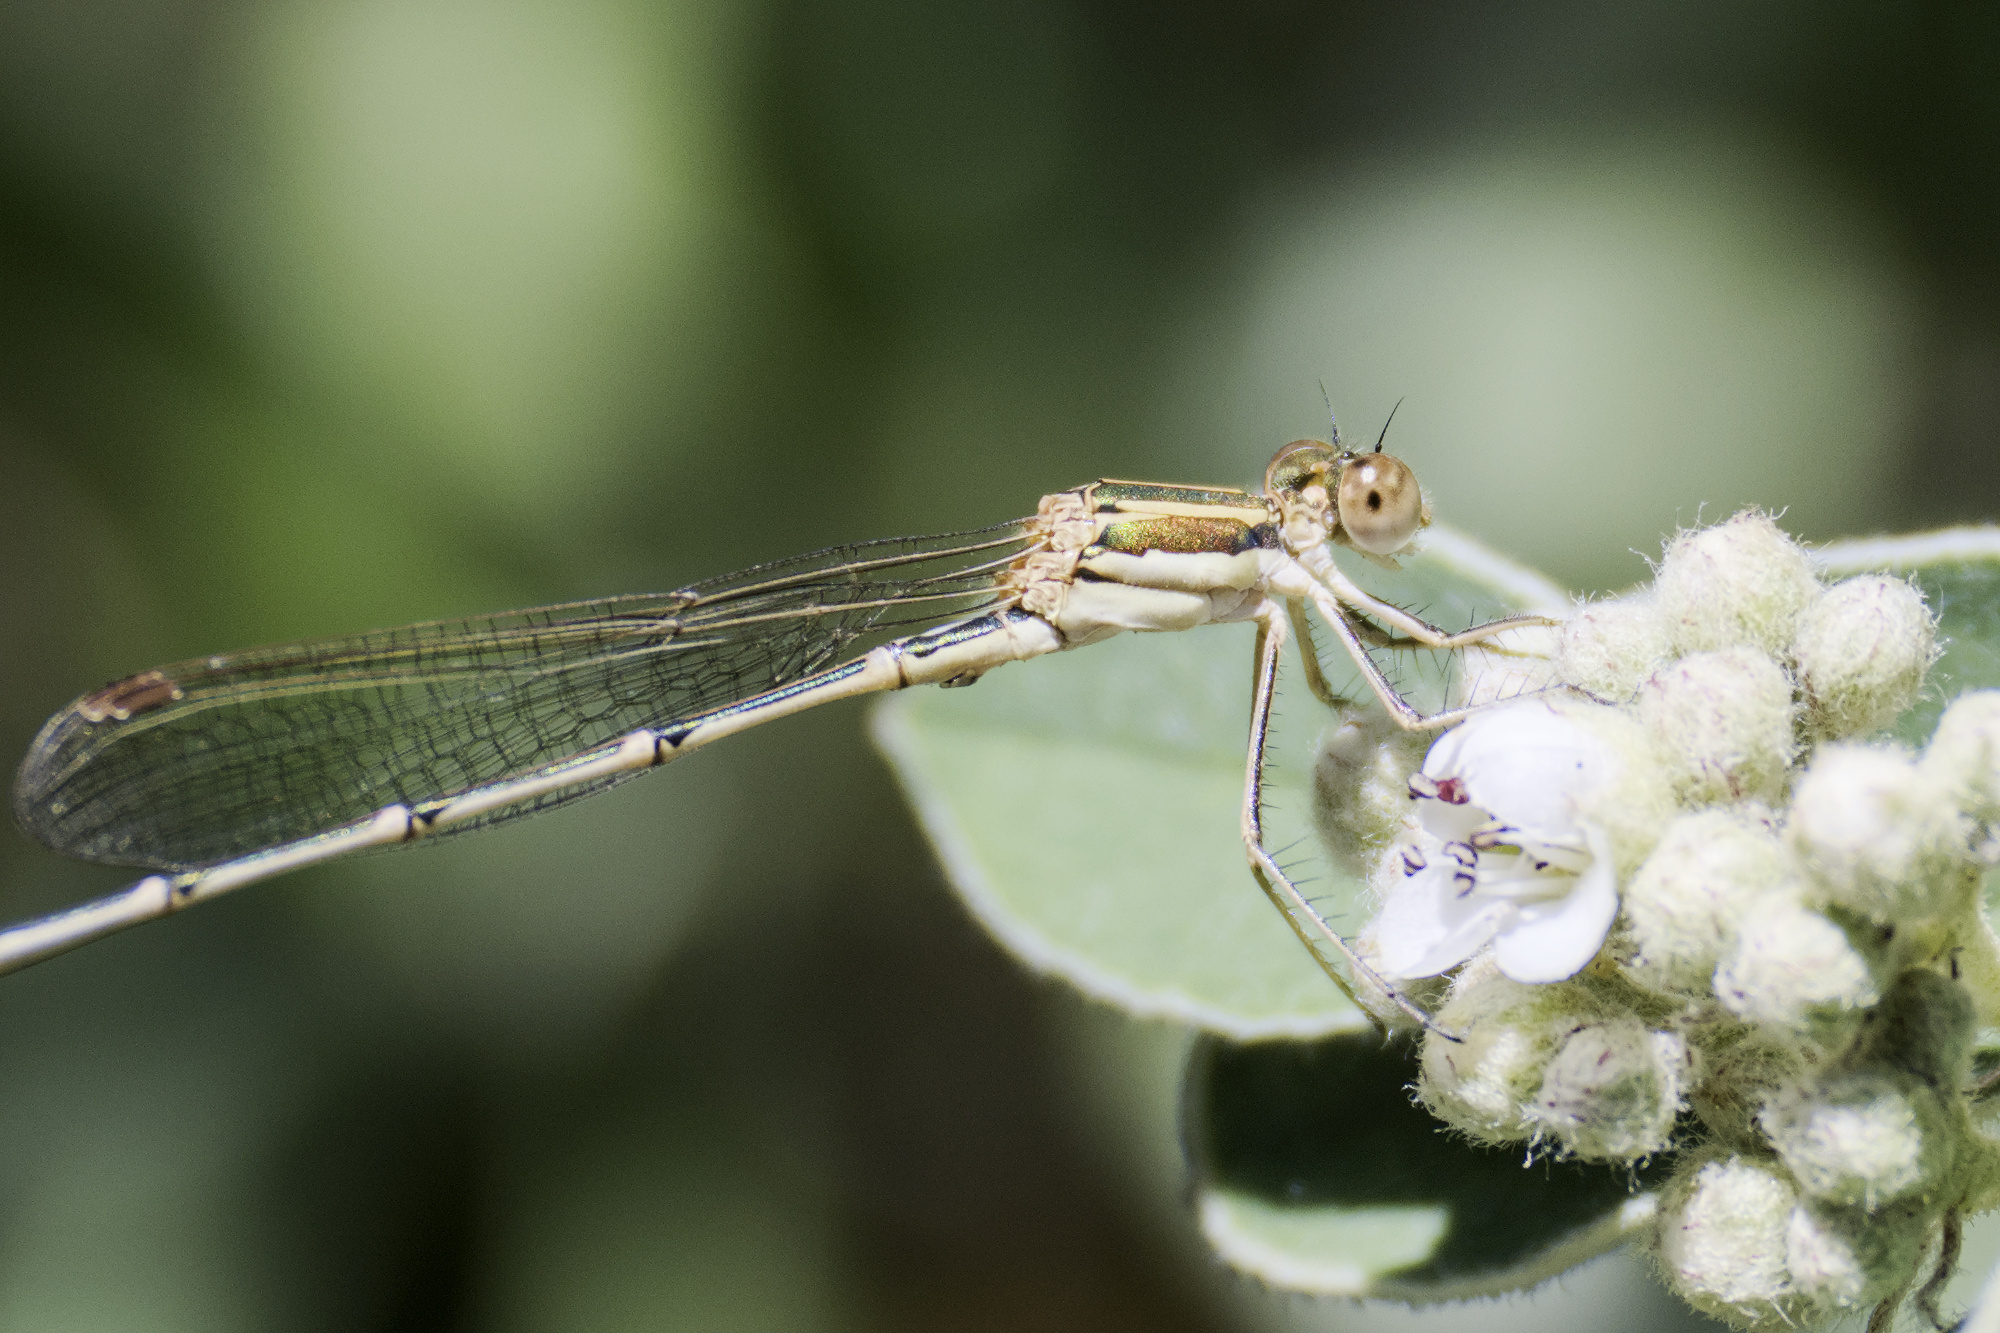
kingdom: Animalia
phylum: Arthropoda
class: Insecta
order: Odonata
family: Lestidae
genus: Austrolestes
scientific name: Austrolestes analis
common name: Slender ringtail
